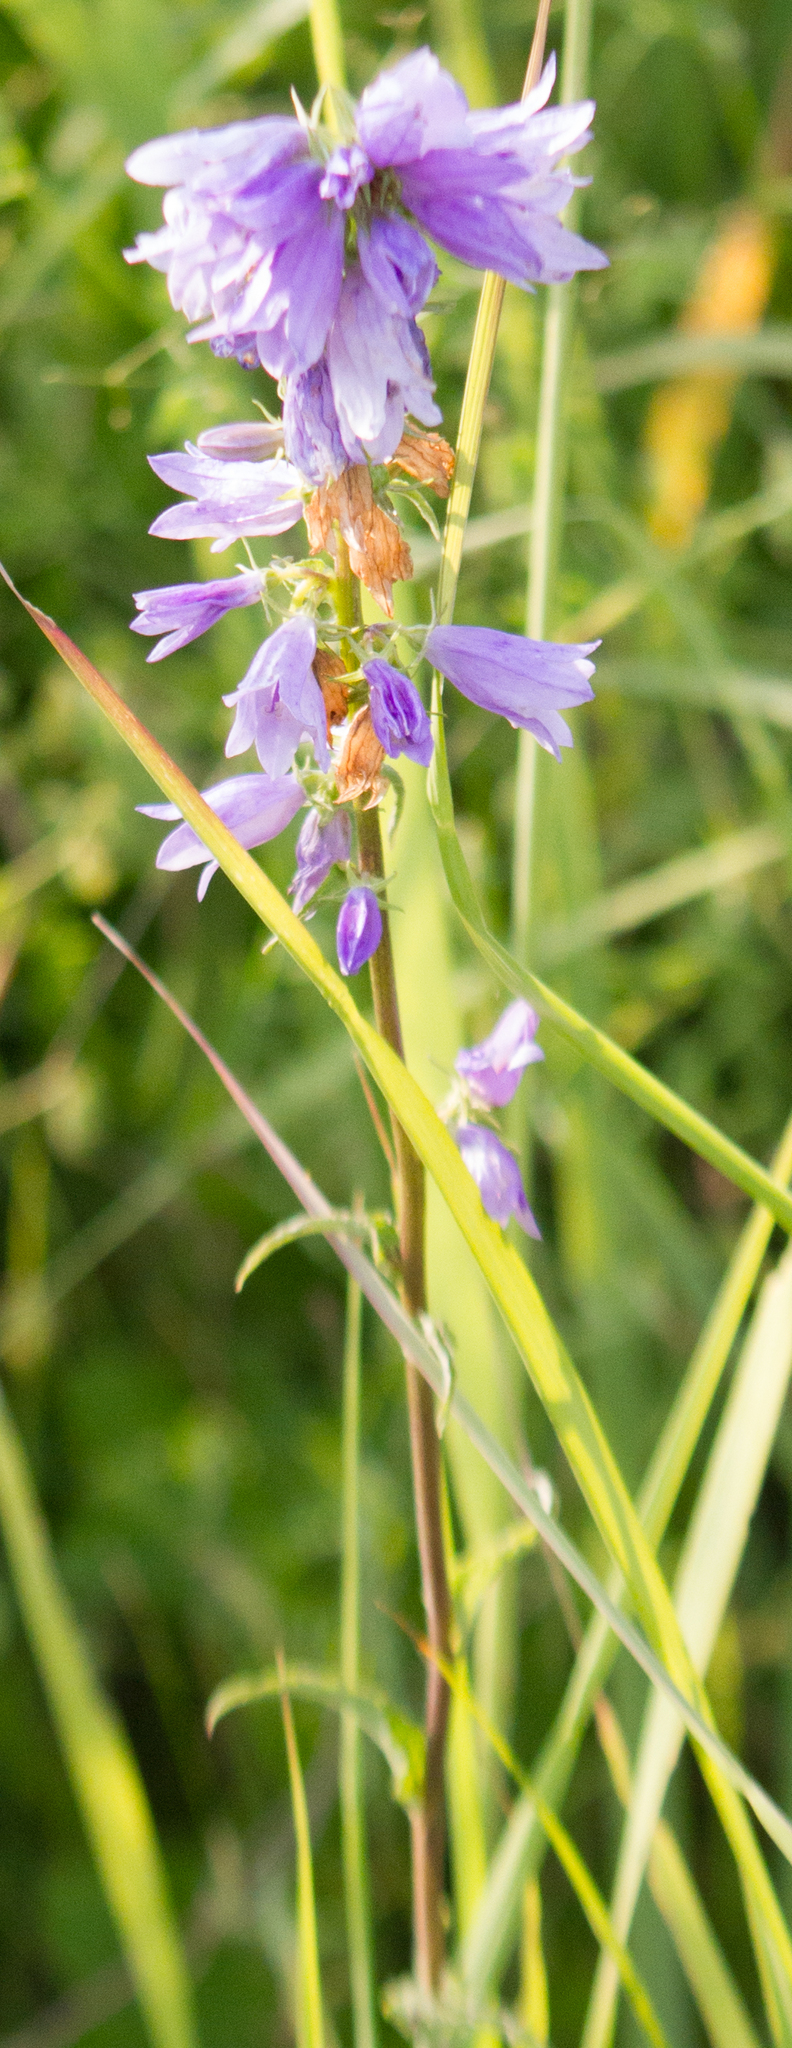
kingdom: Plantae
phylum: Tracheophyta
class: Magnoliopsida
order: Asterales
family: Campanulaceae
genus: Campanula
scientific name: Campanula bononiensis
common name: Pale bellflower
